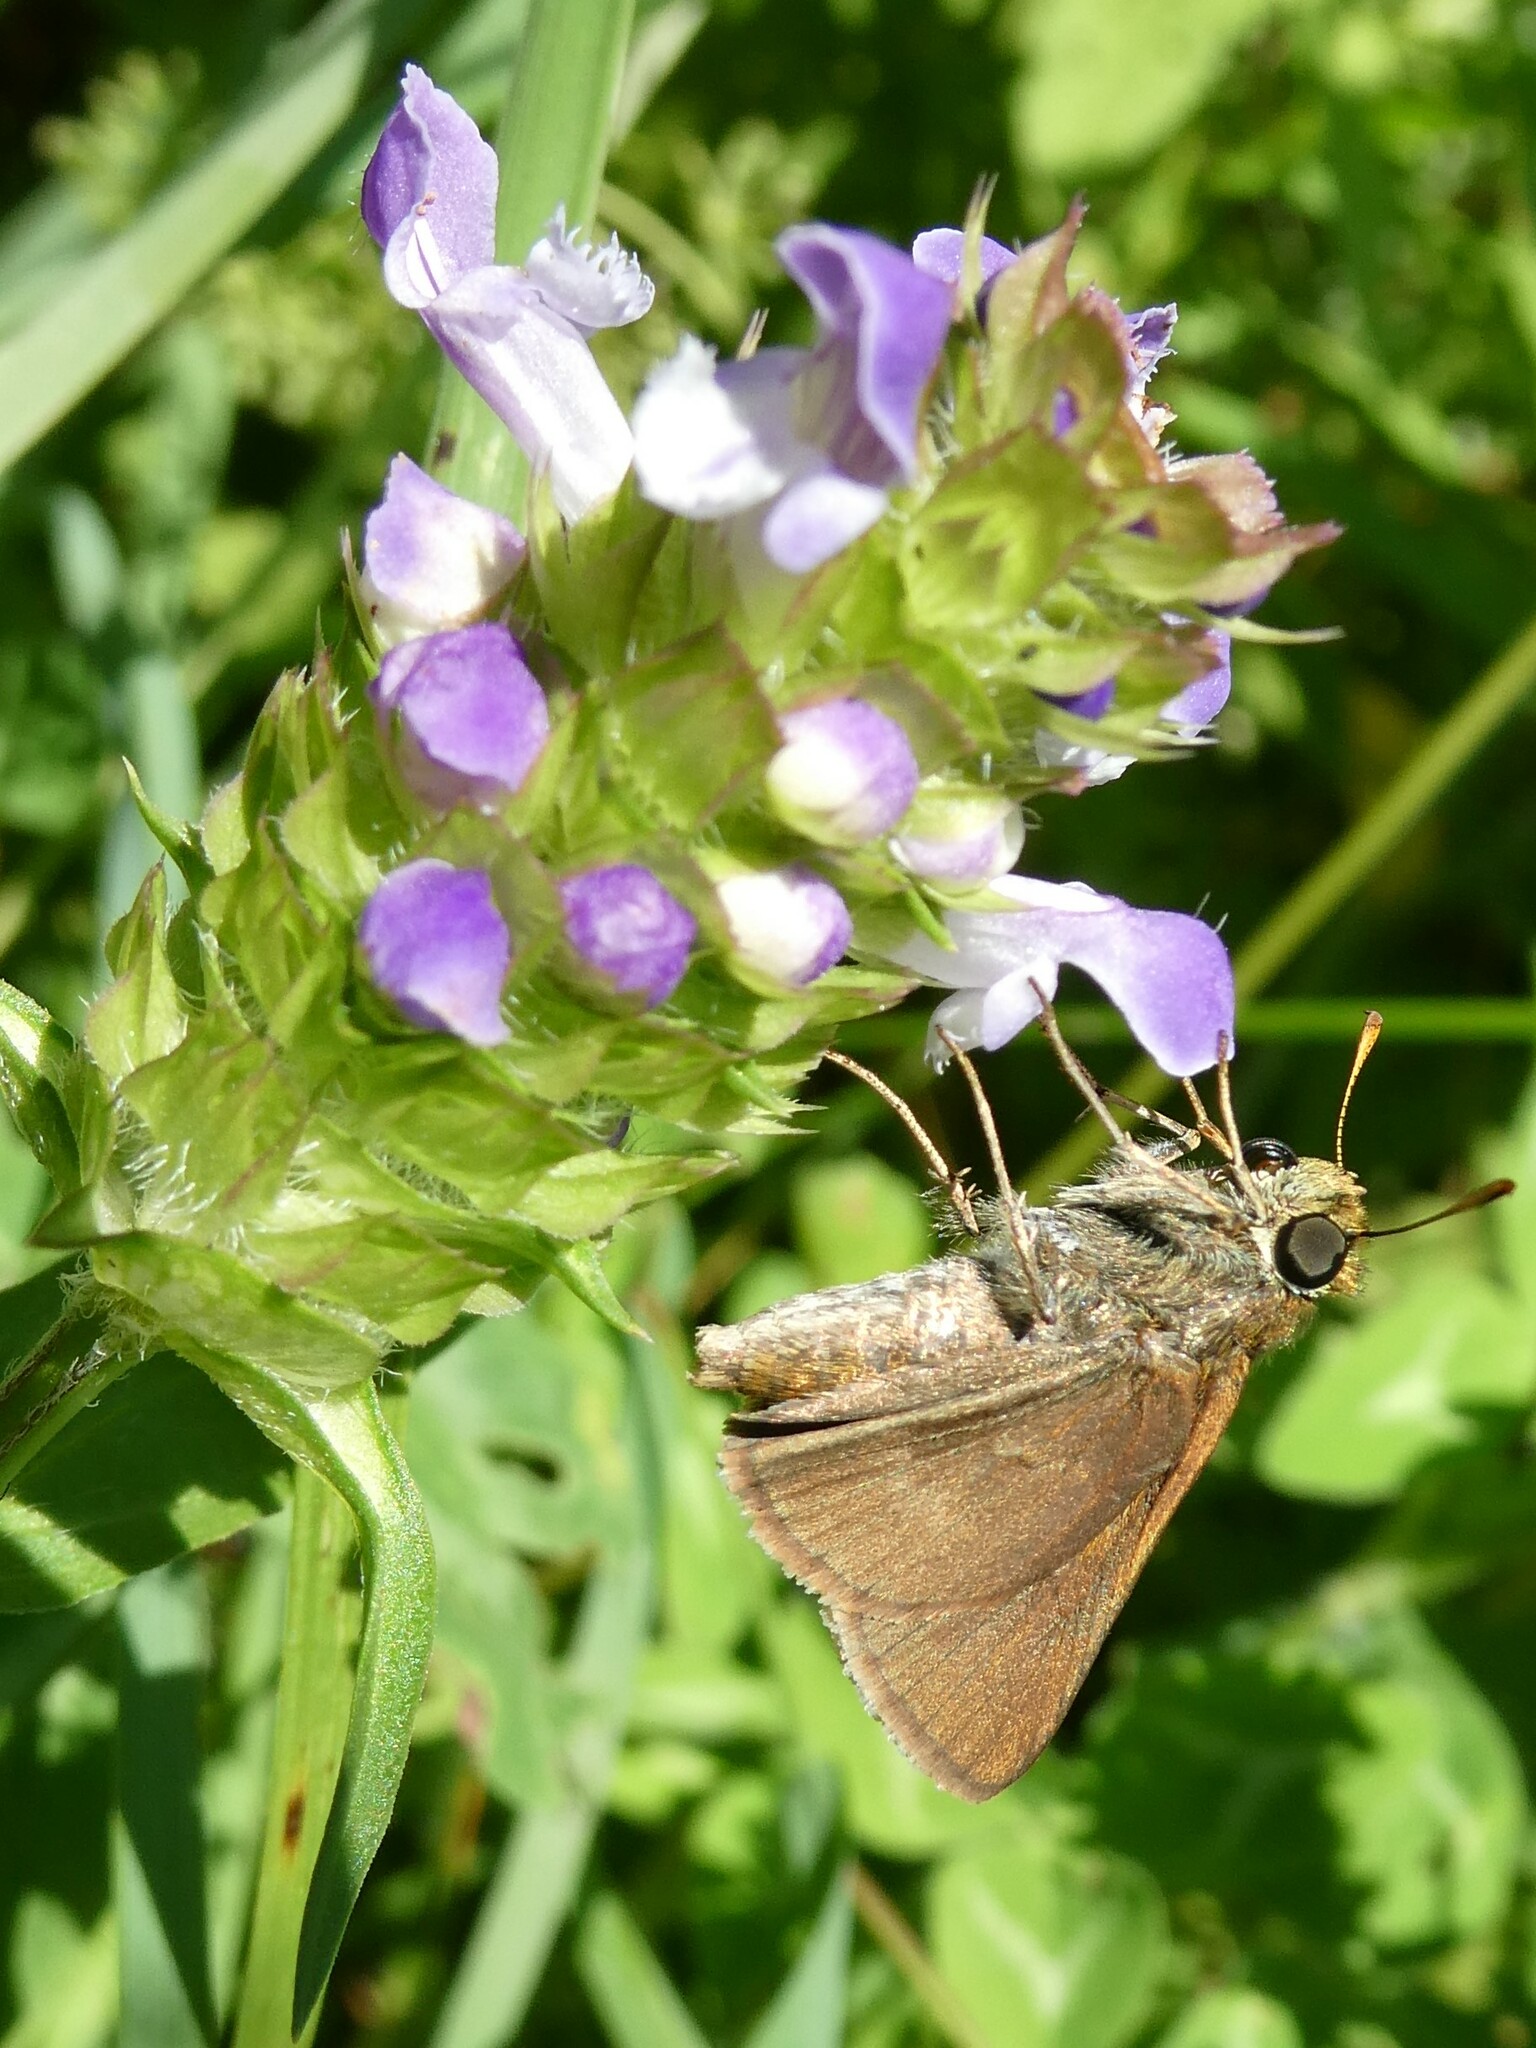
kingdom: Plantae
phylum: Tracheophyta
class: Magnoliopsida
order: Lamiales
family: Lamiaceae
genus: Prunella
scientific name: Prunella vulgaris
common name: Heal-all
